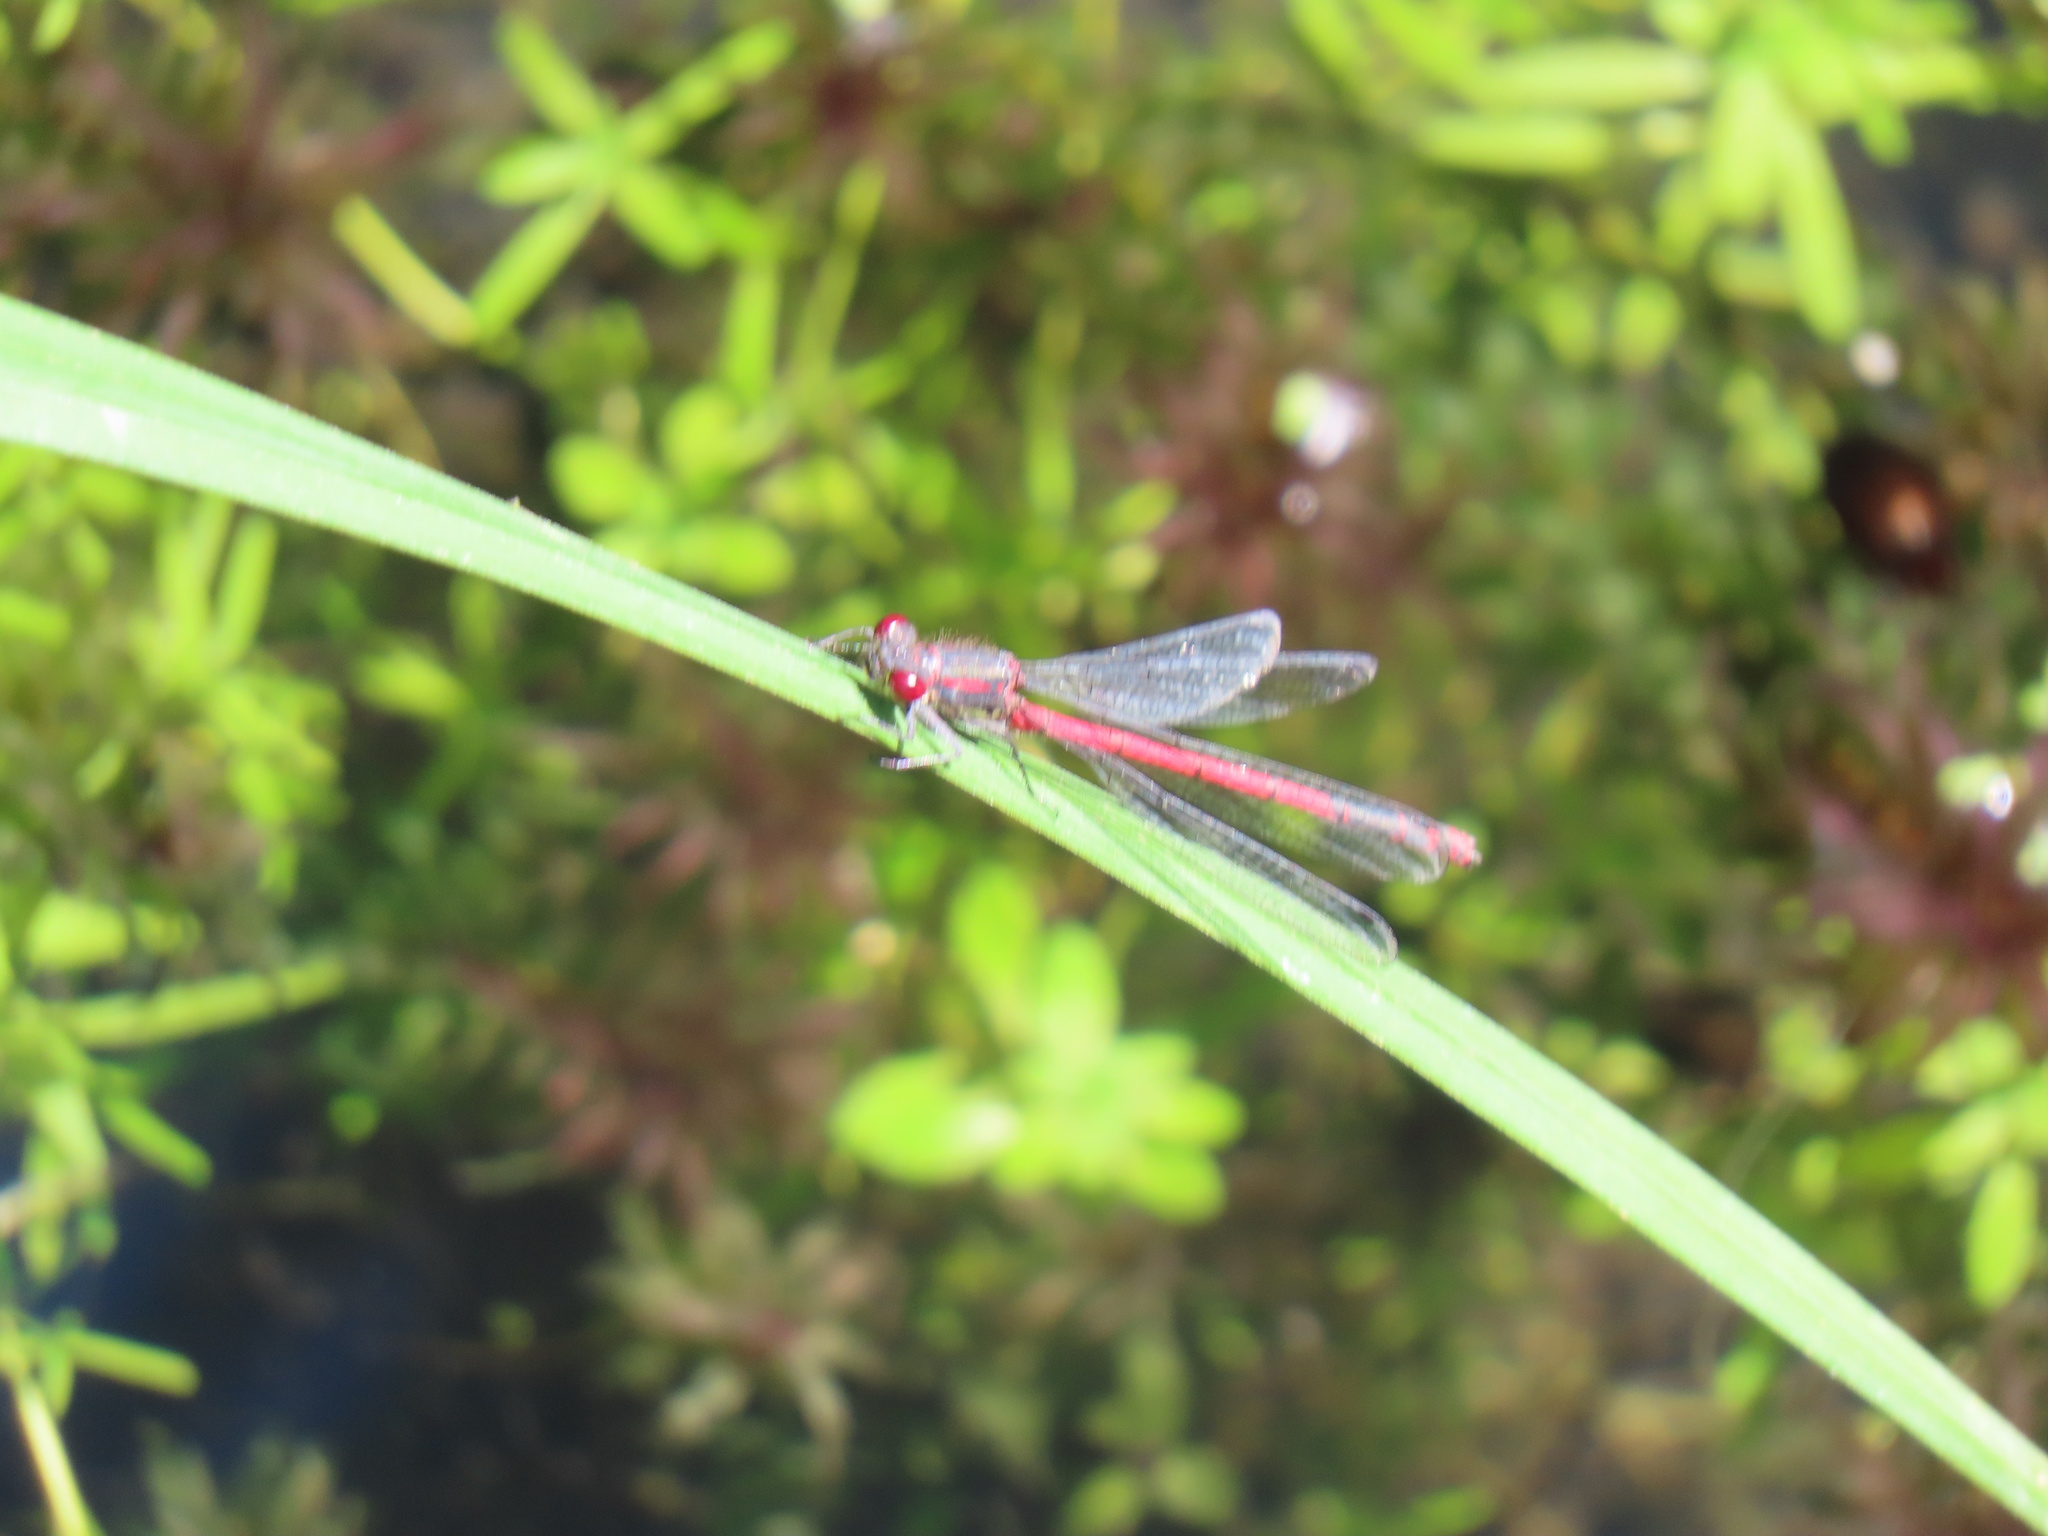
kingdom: Animalia
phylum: Arthropoda
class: Insecta
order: Odonata
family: Coenagrionidae
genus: Pyrrhosoma
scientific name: Pyrrhosoma nymphula
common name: Large red damsel
